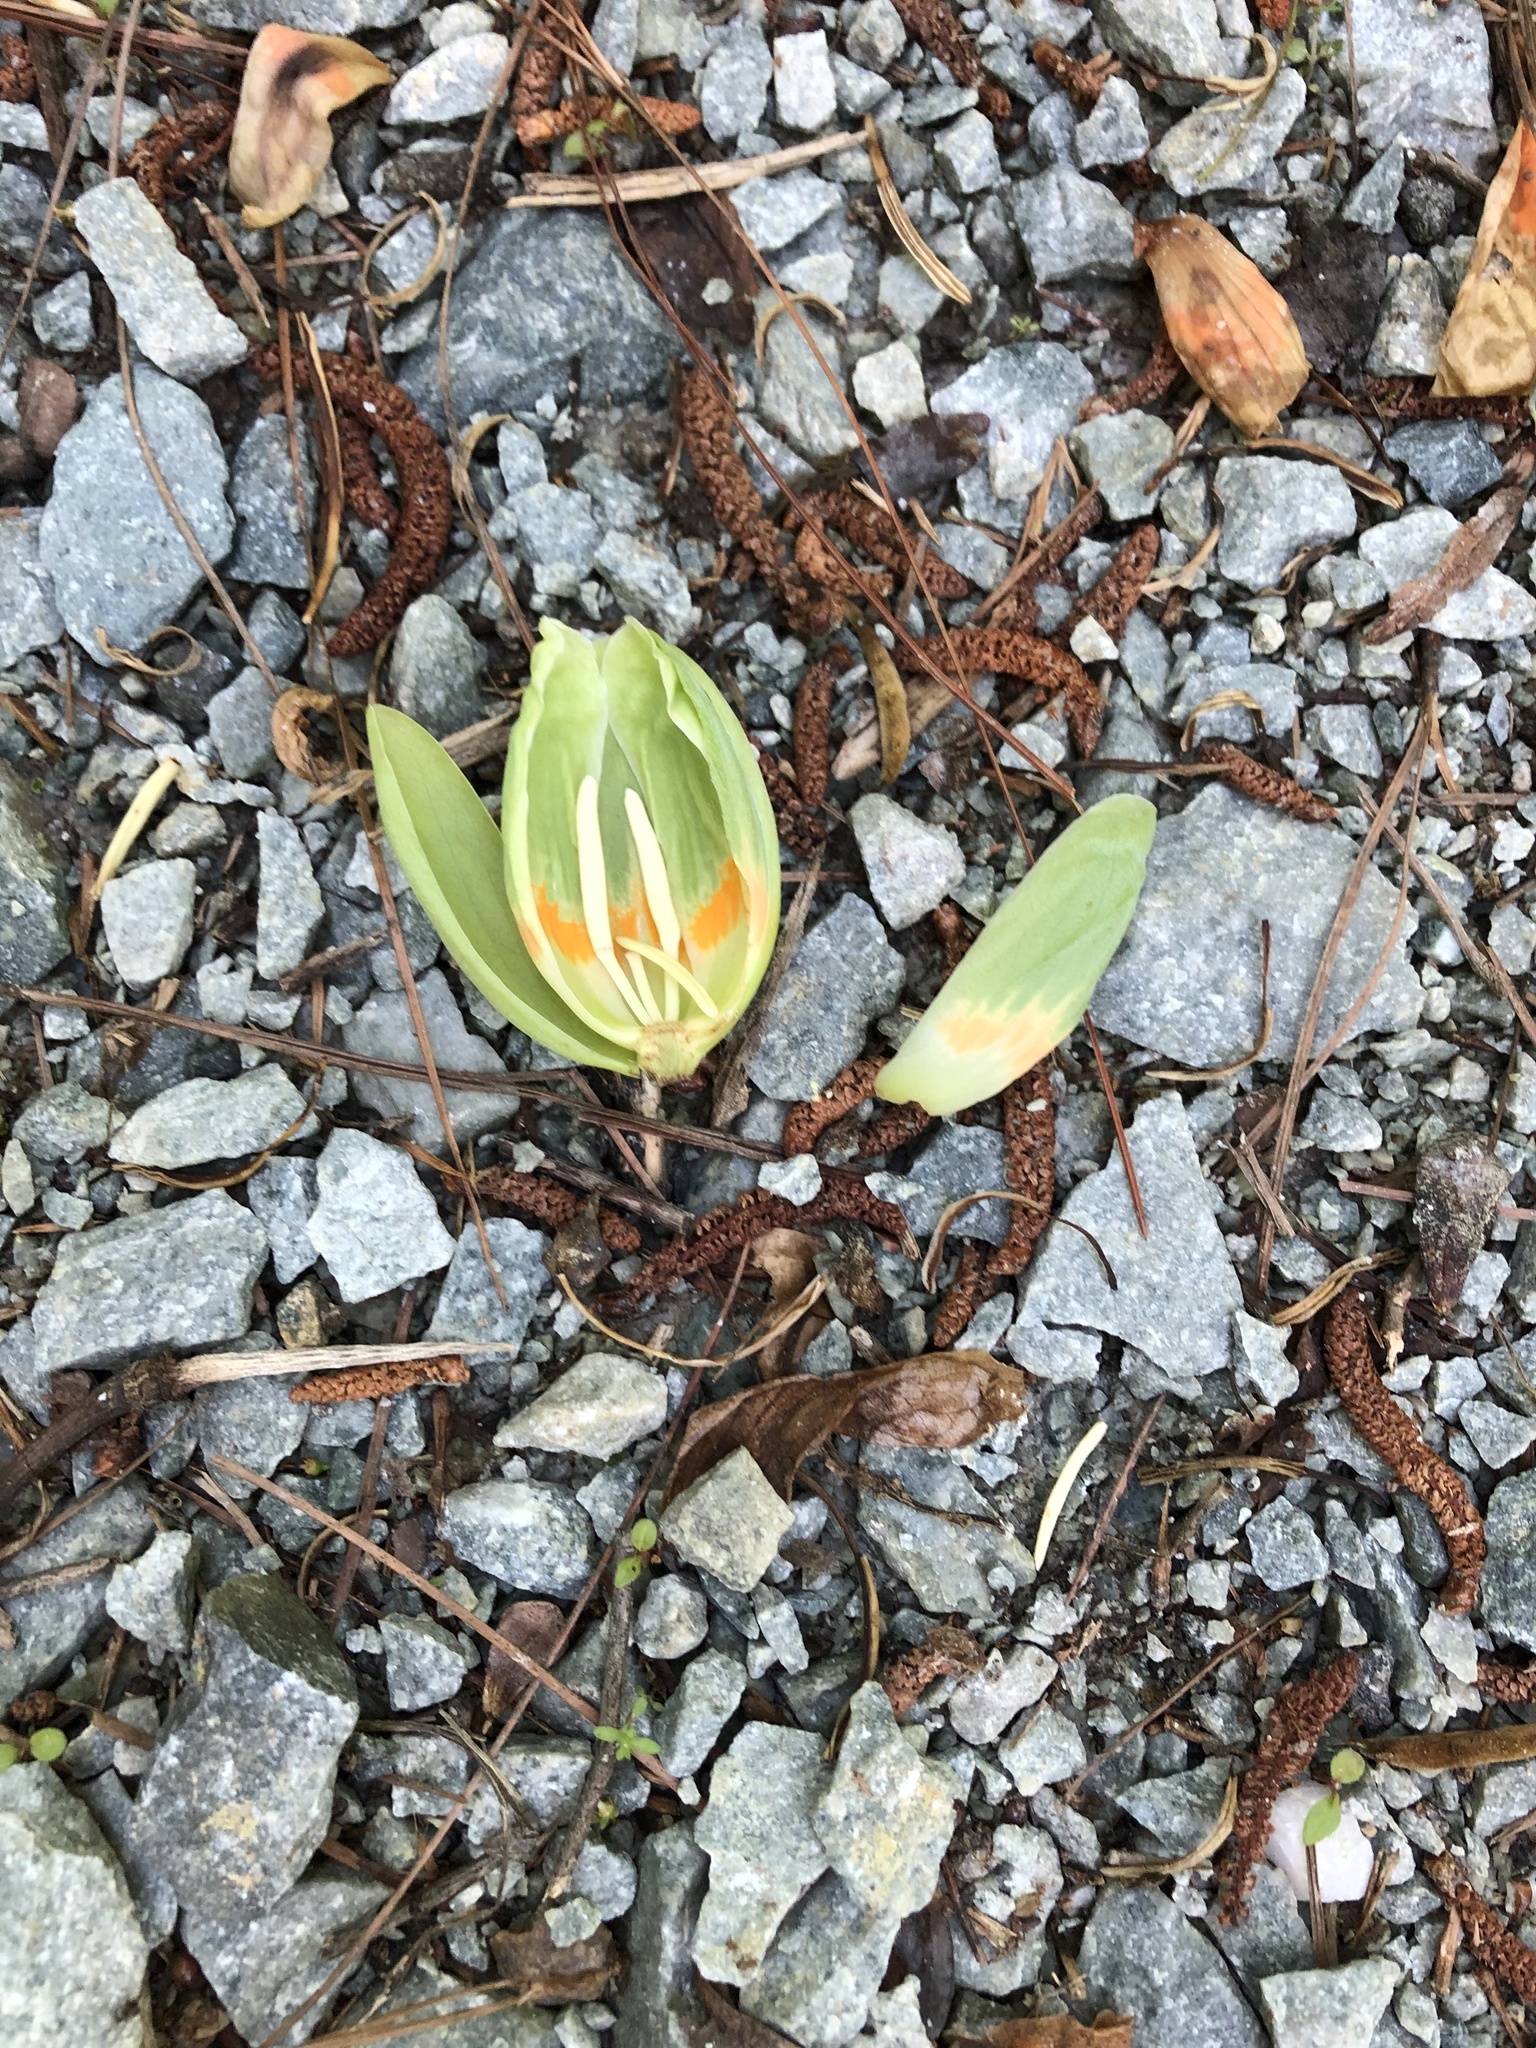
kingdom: Plantae
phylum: Tracheophyta
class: Magnoliopsida
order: Magnoliales
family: Magnoliaceae
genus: Liriodendron
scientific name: Liriodendron tulipifera
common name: Tulip tree
